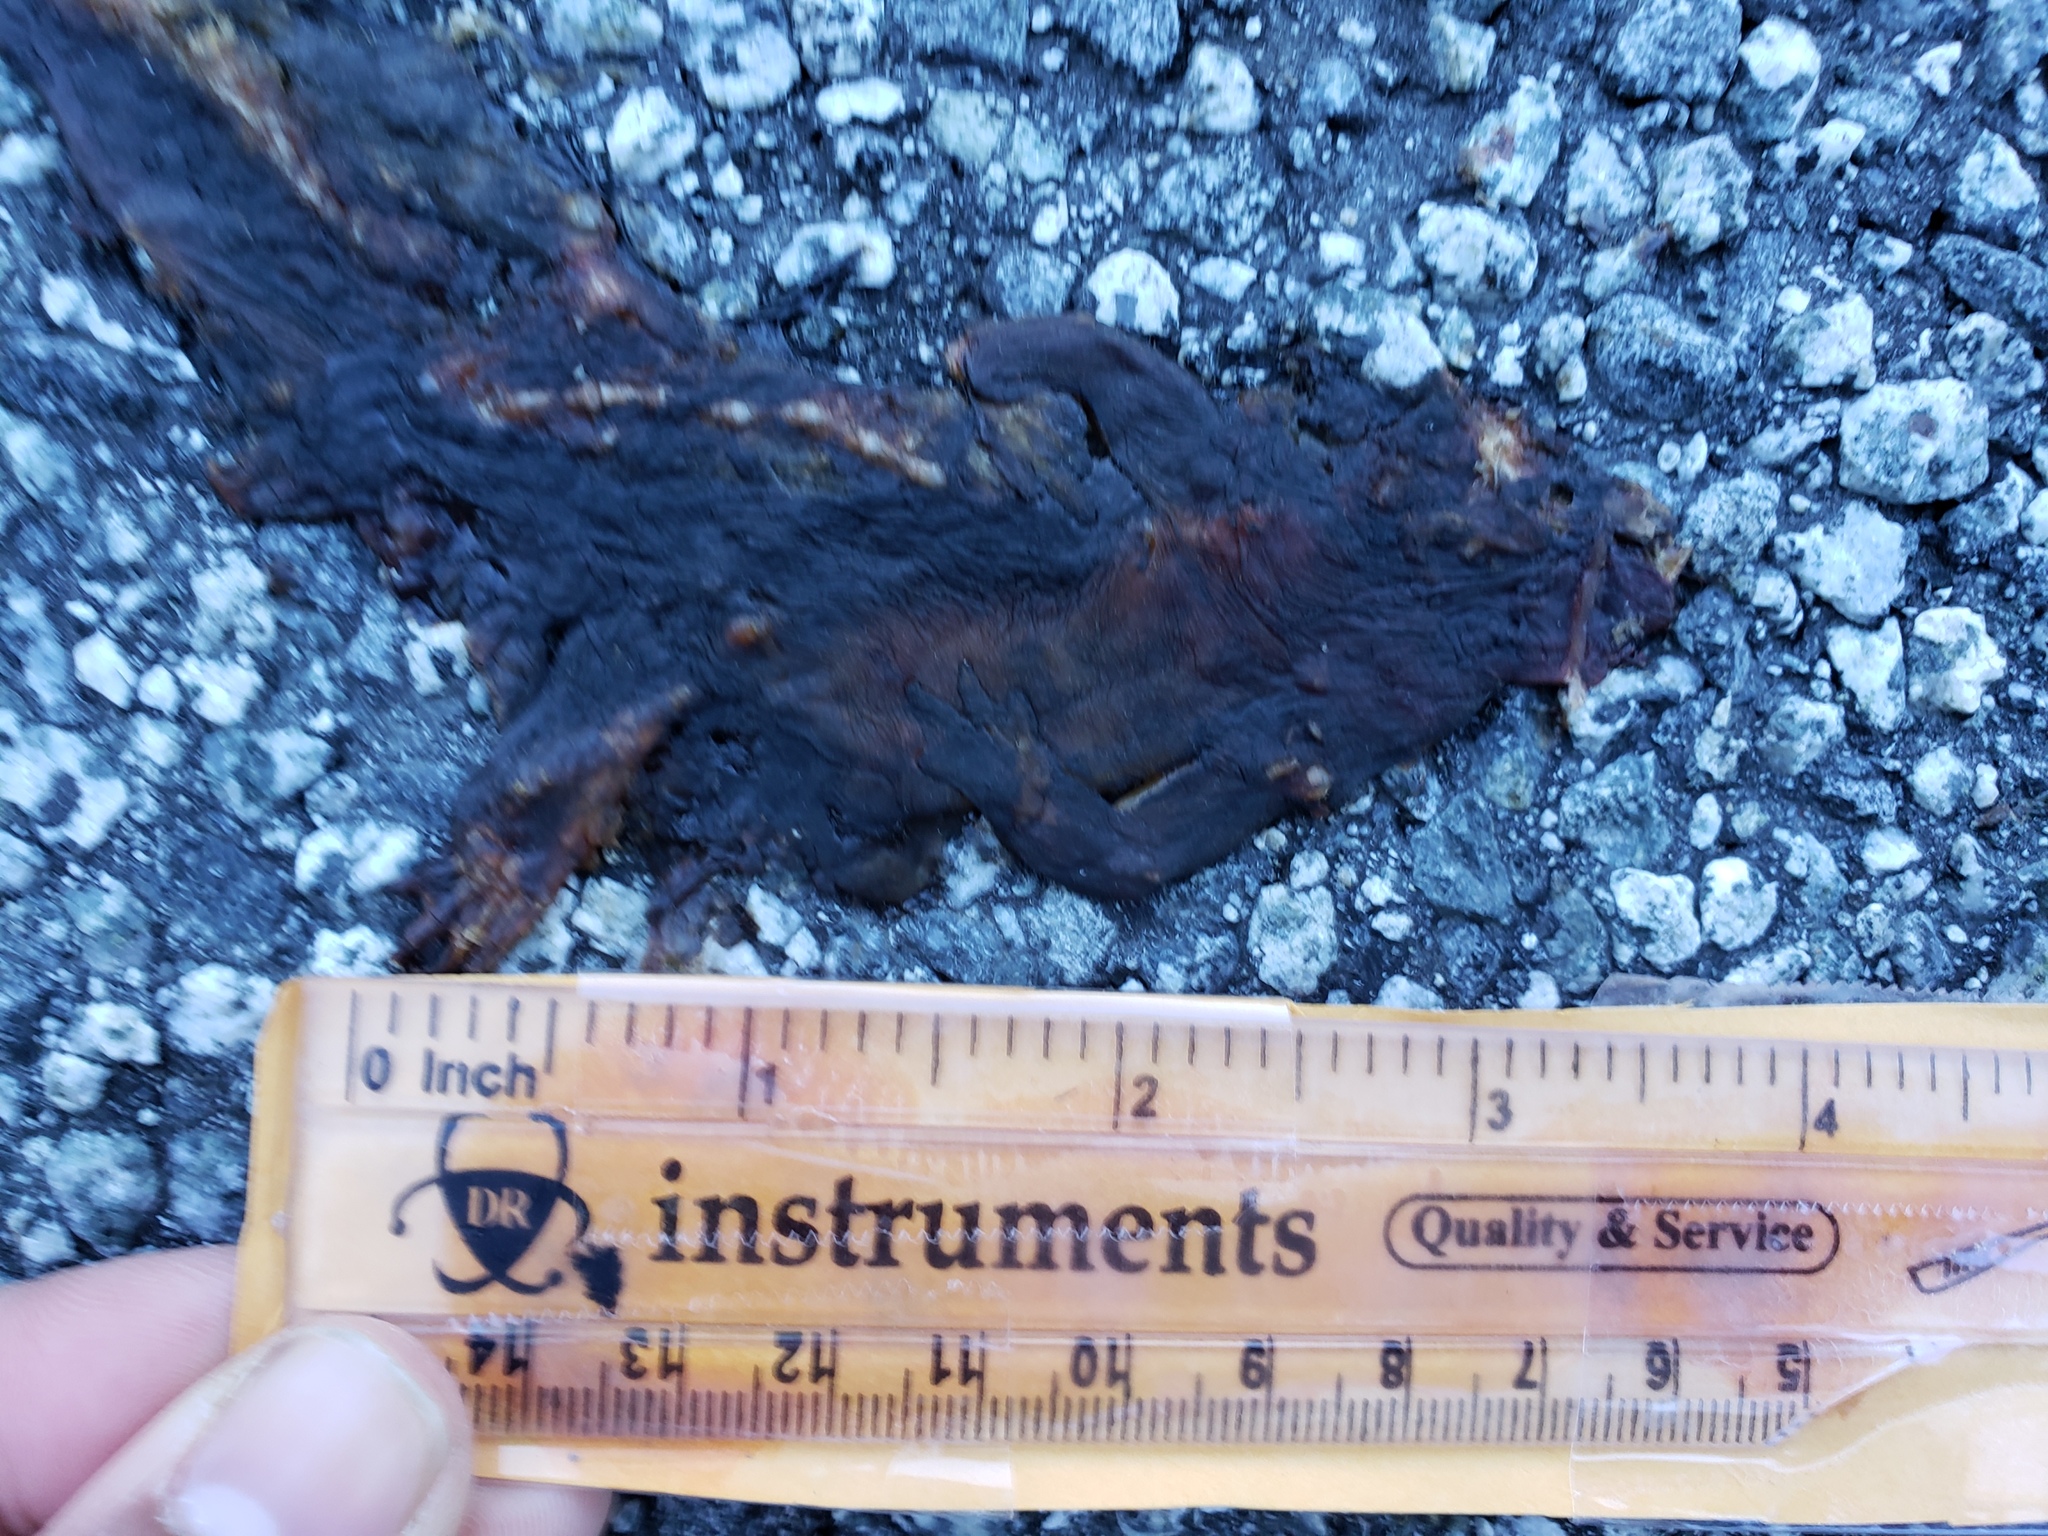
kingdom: Animalia
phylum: Chordata
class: Amphibia
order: Caudata
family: Salamandridae
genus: Taricha
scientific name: Taricha
